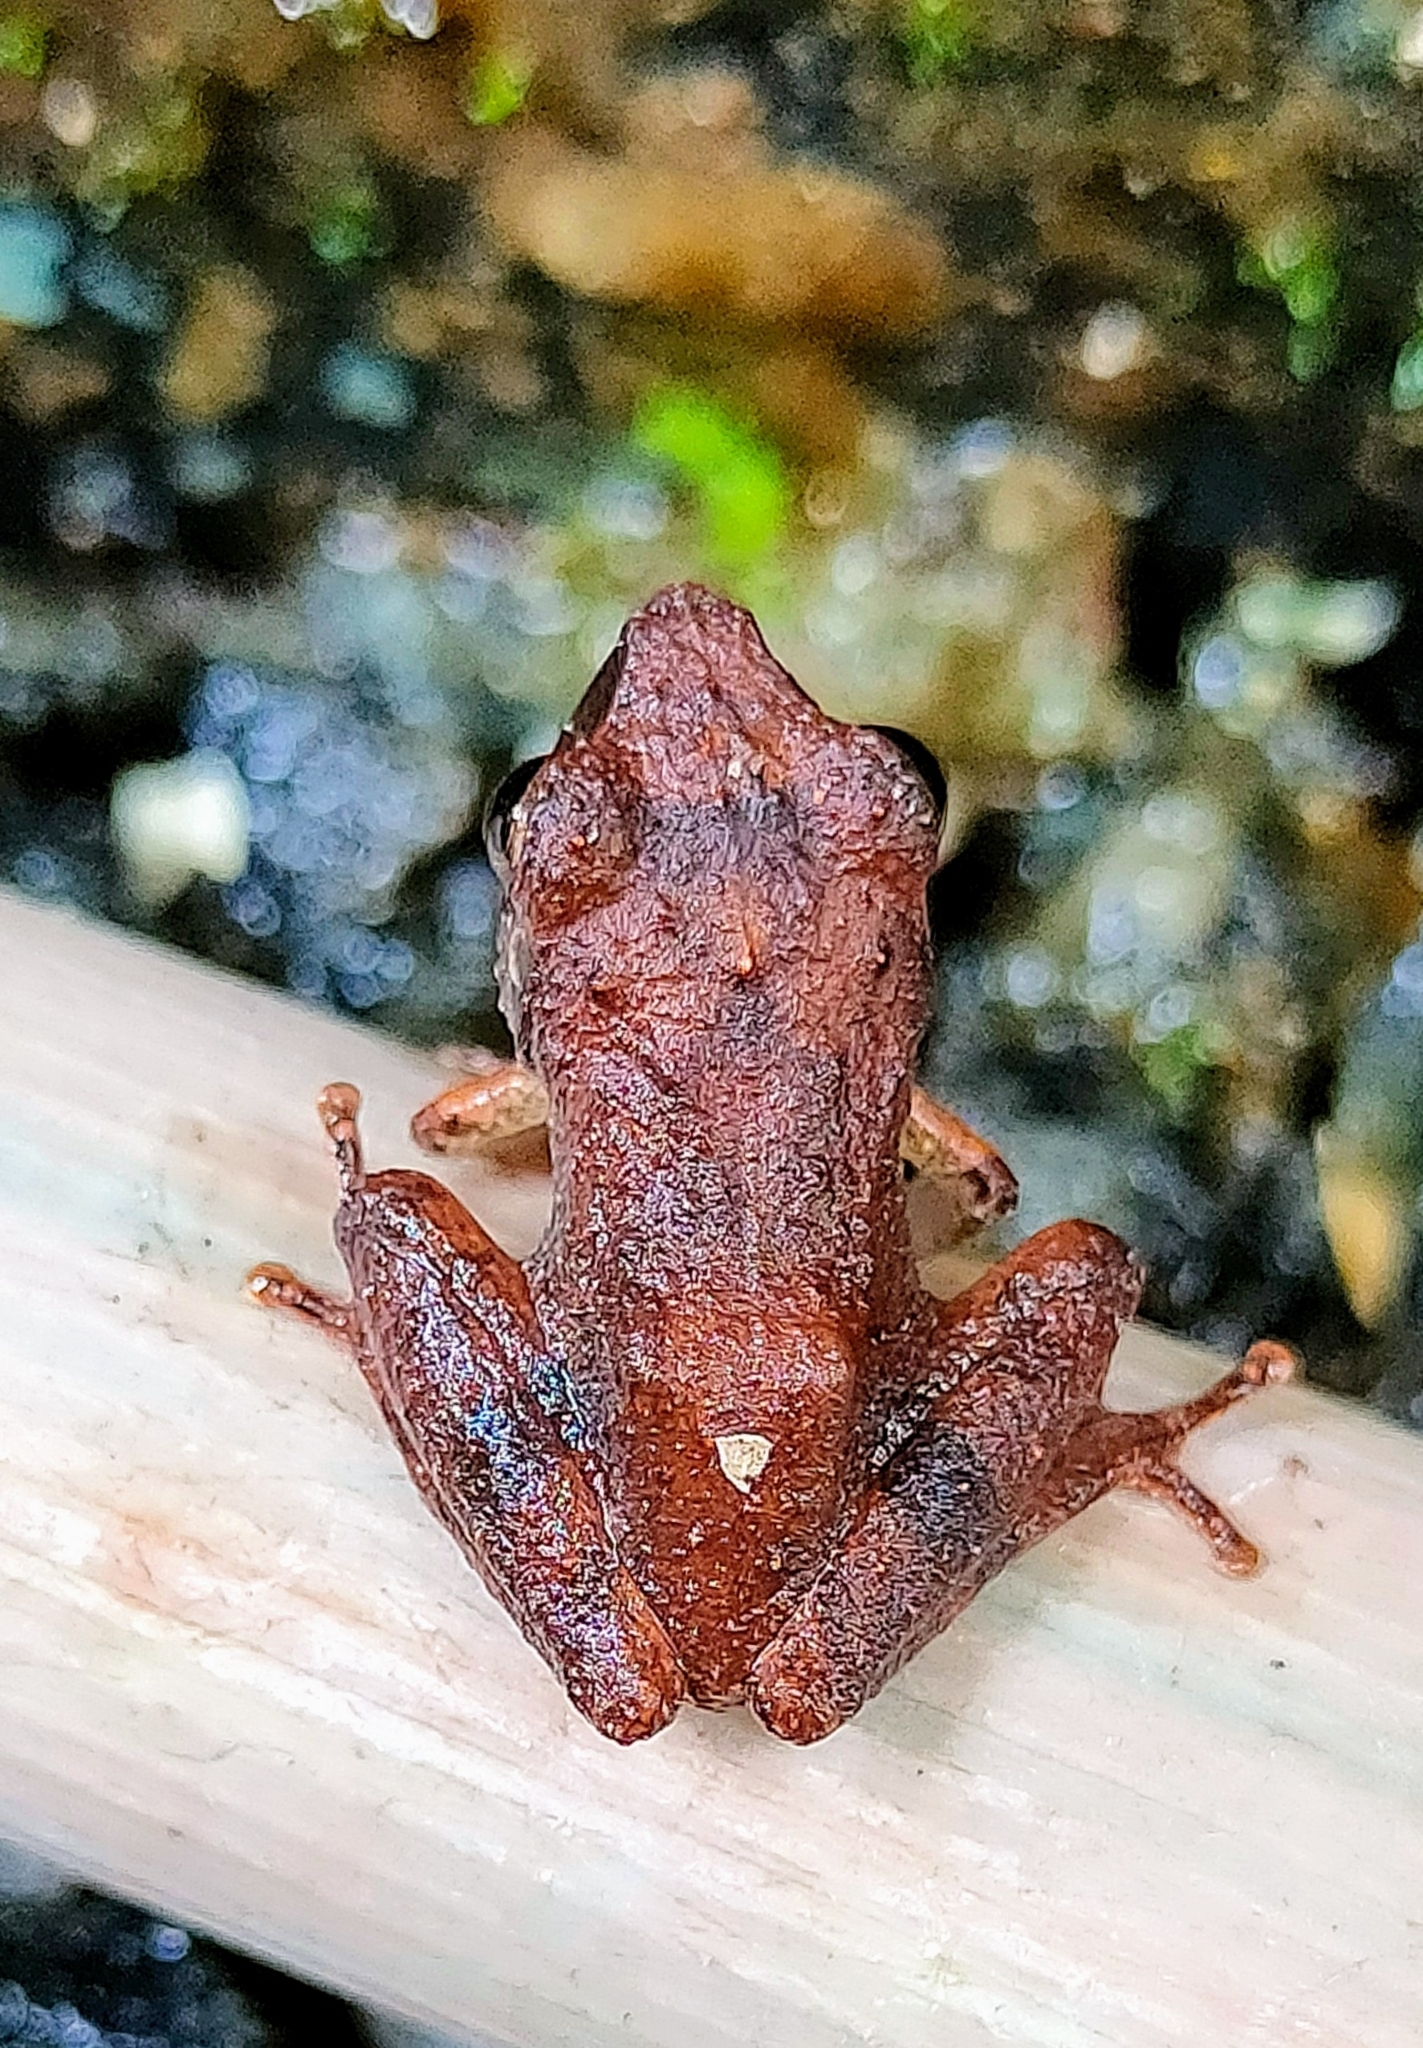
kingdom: Animalia
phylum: Chordata
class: Amphibia
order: Anura
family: Rhacophoridae
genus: Pseudophilautus
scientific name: Pseudophilautus wynaadensis
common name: Dark-eared bush frog
